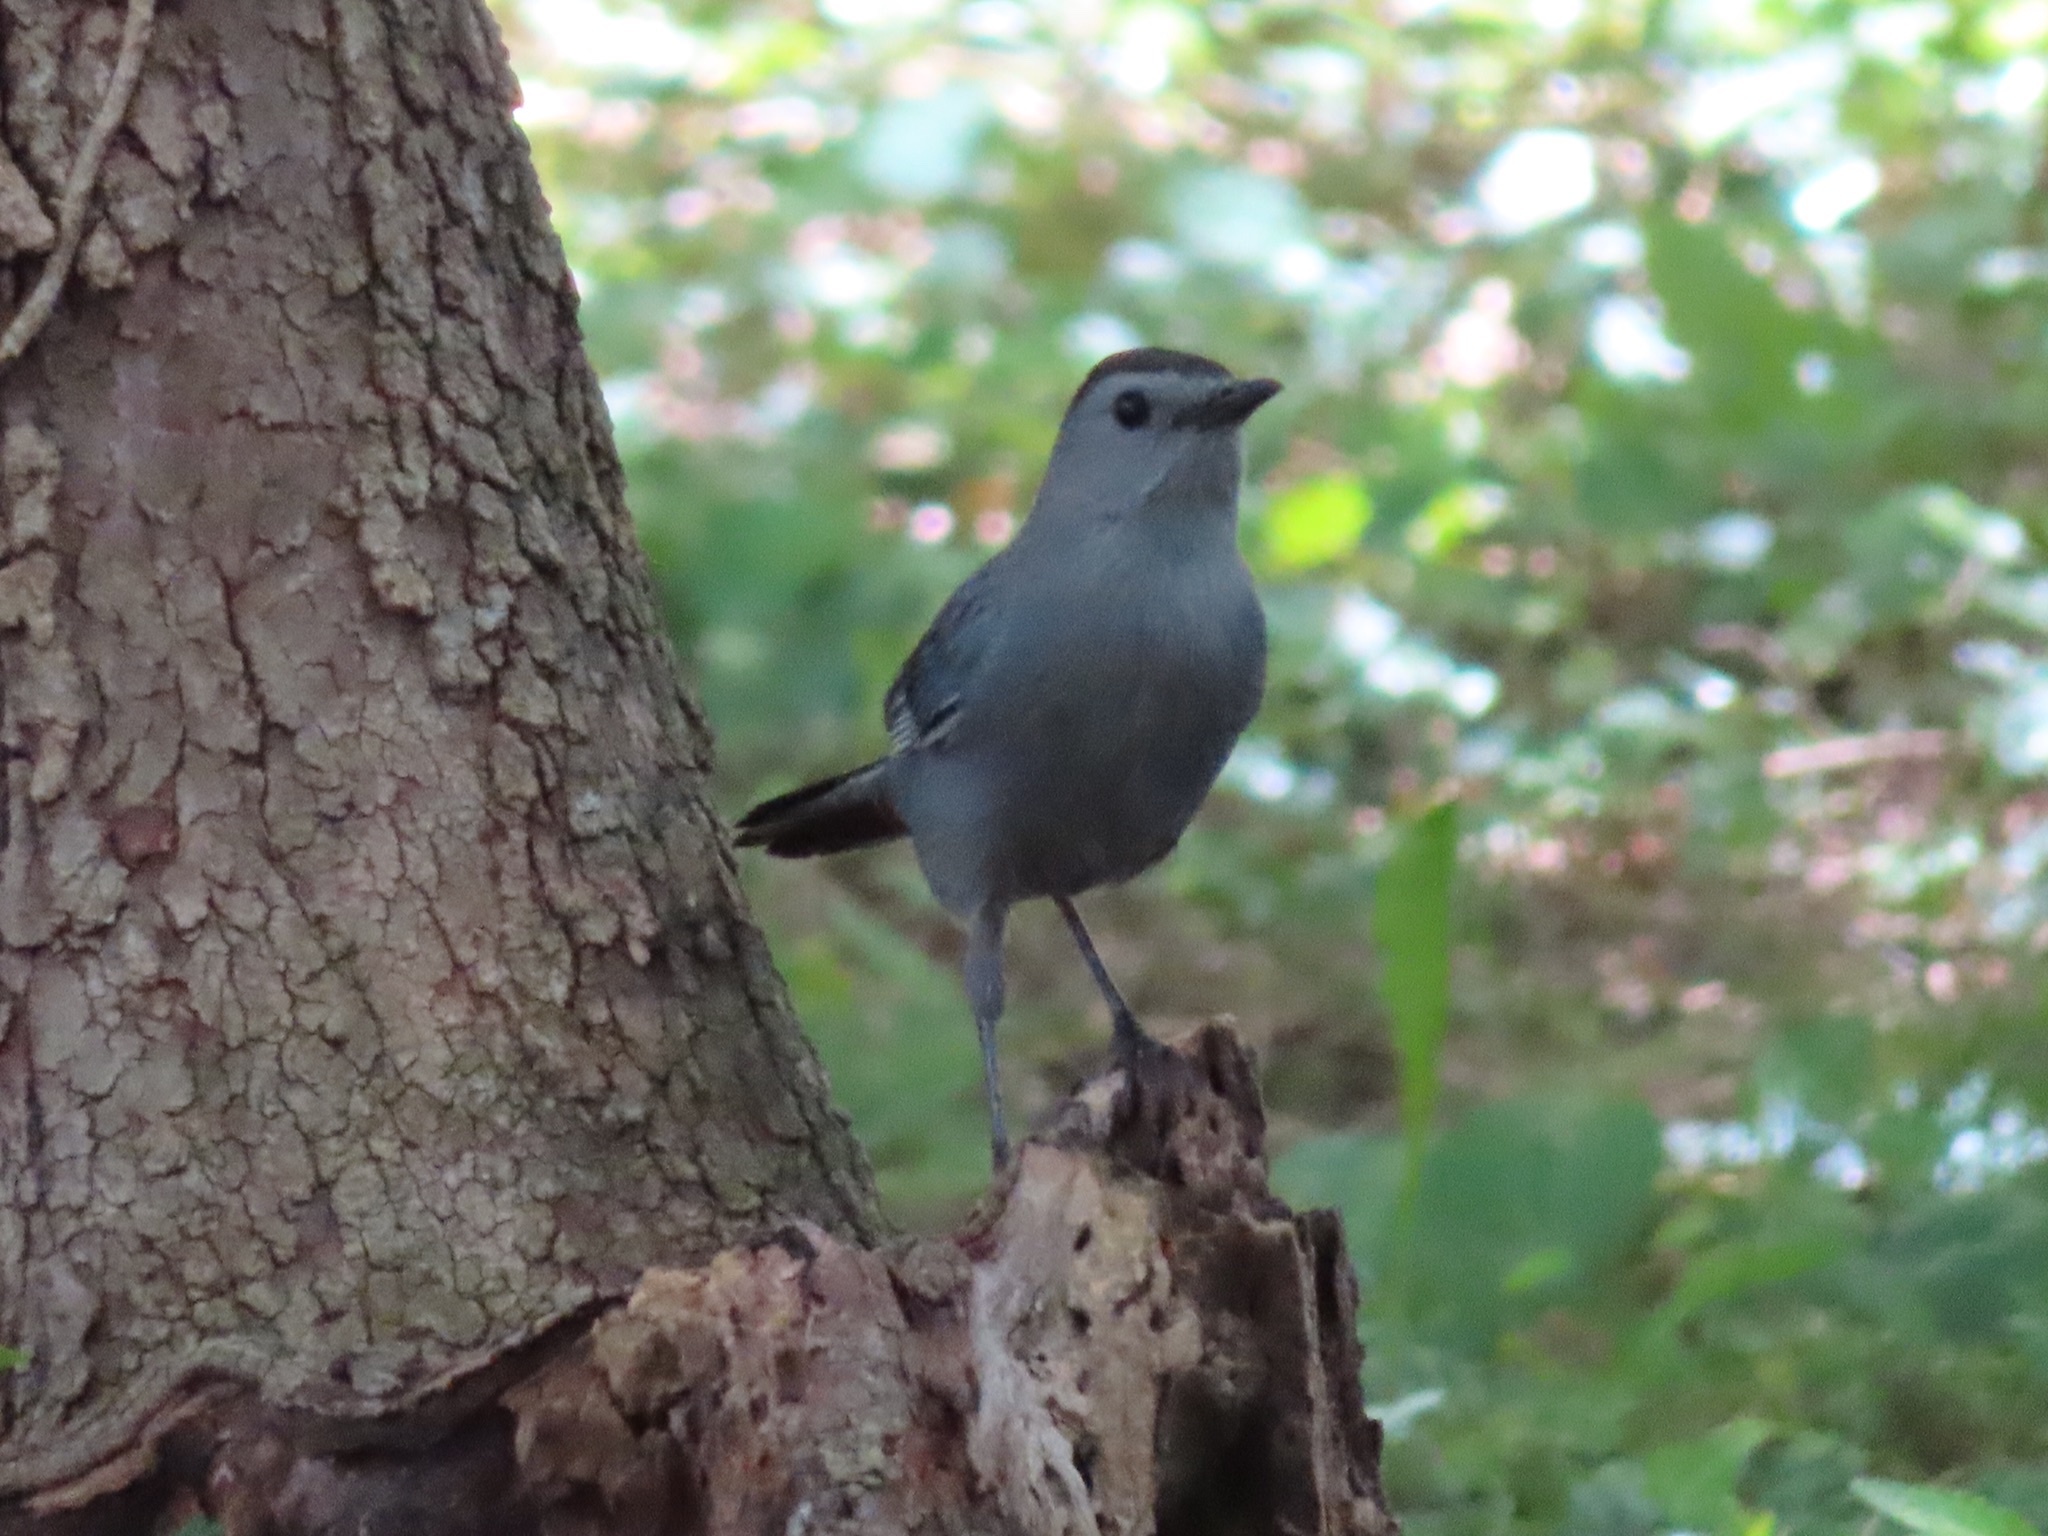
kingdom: Animalia
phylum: Chordata
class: Aves
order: Passeriformes
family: Mimidae
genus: Dumetella
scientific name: Dumetella carolinensis
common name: Gray catbird
